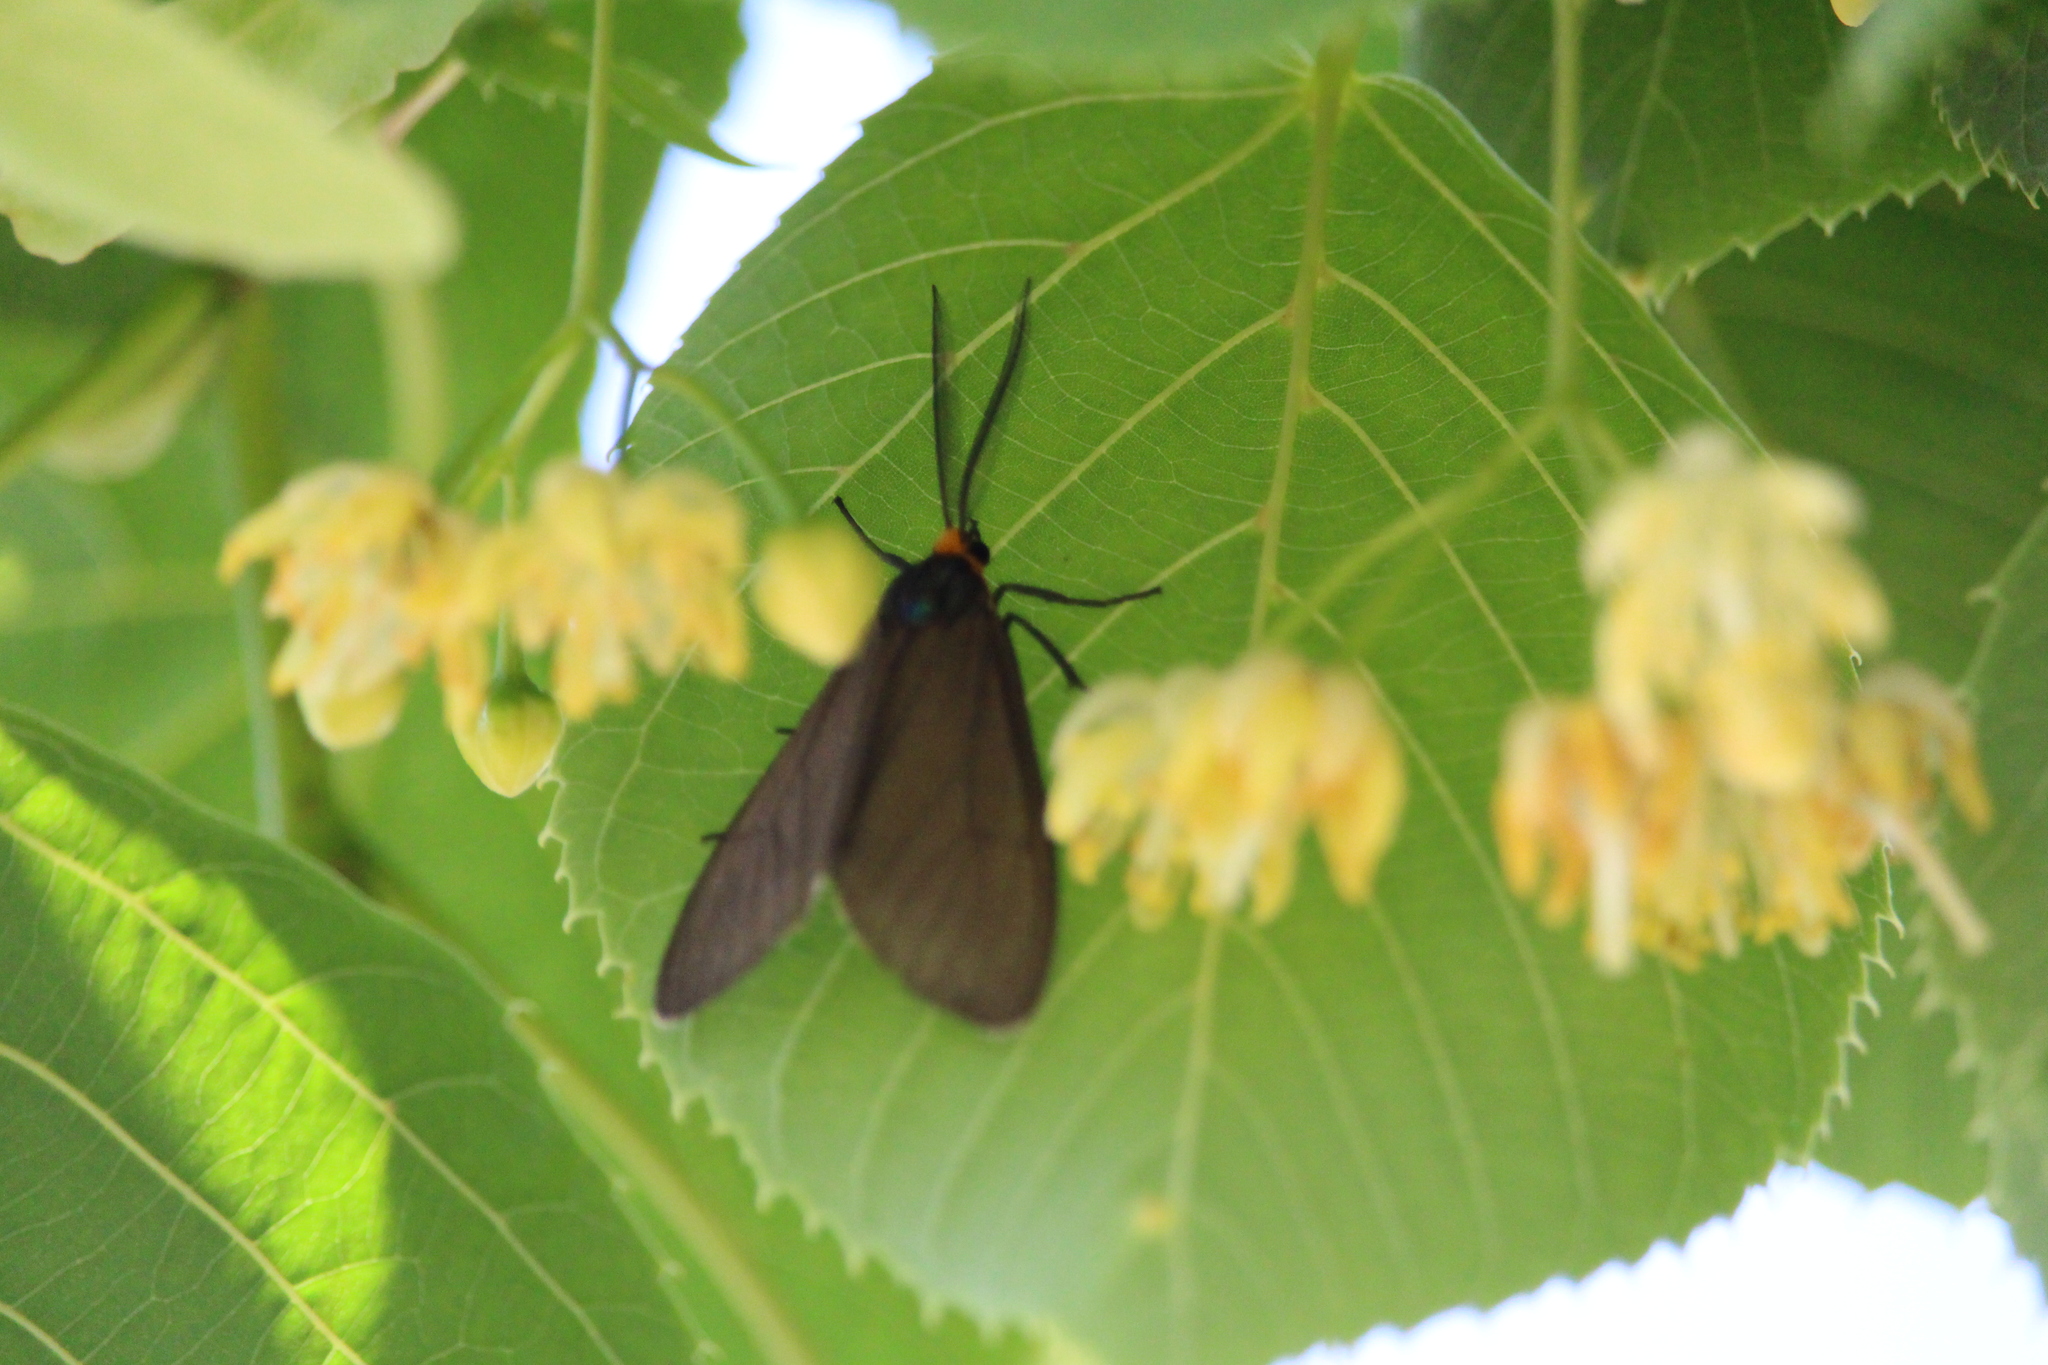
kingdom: Animalia
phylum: Arthropoda
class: Insecta
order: Lepidoptera
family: Erebidae
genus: Ctenucha
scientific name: Ctenucha virginica
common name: Virginia ctenucha moth
